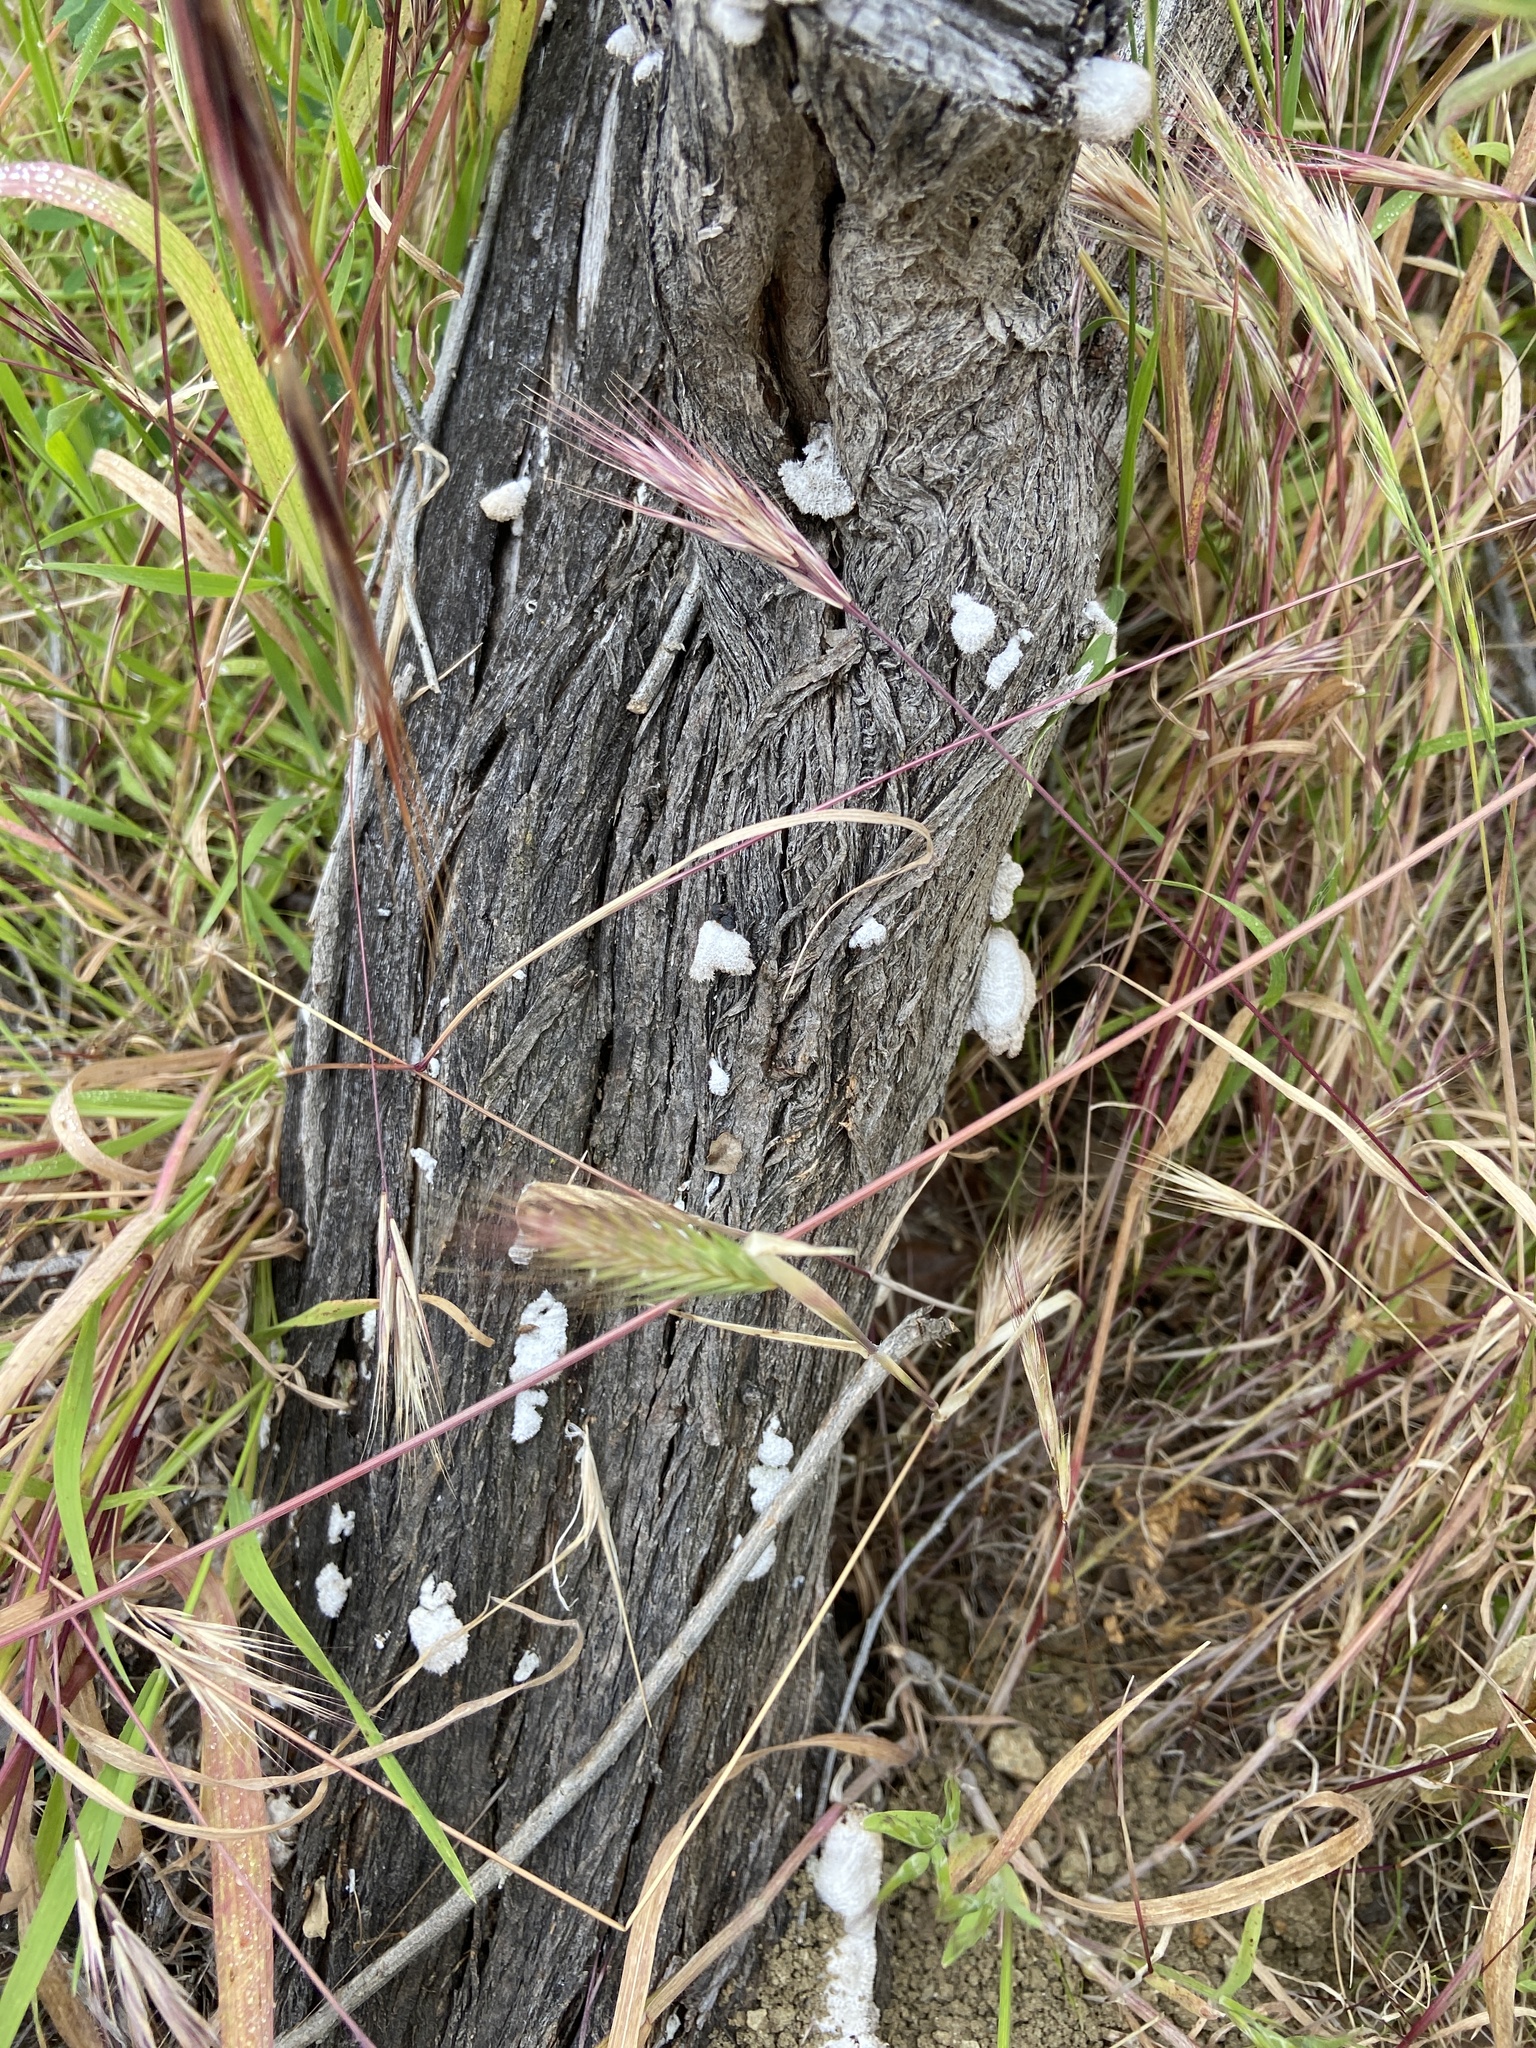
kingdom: Fungi
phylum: Basidiomycota
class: Agaricomycetes
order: Agaricales
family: Schizophyllaceae
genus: Schizophyllum
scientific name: Schizophyllum commune
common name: Common porecrust
